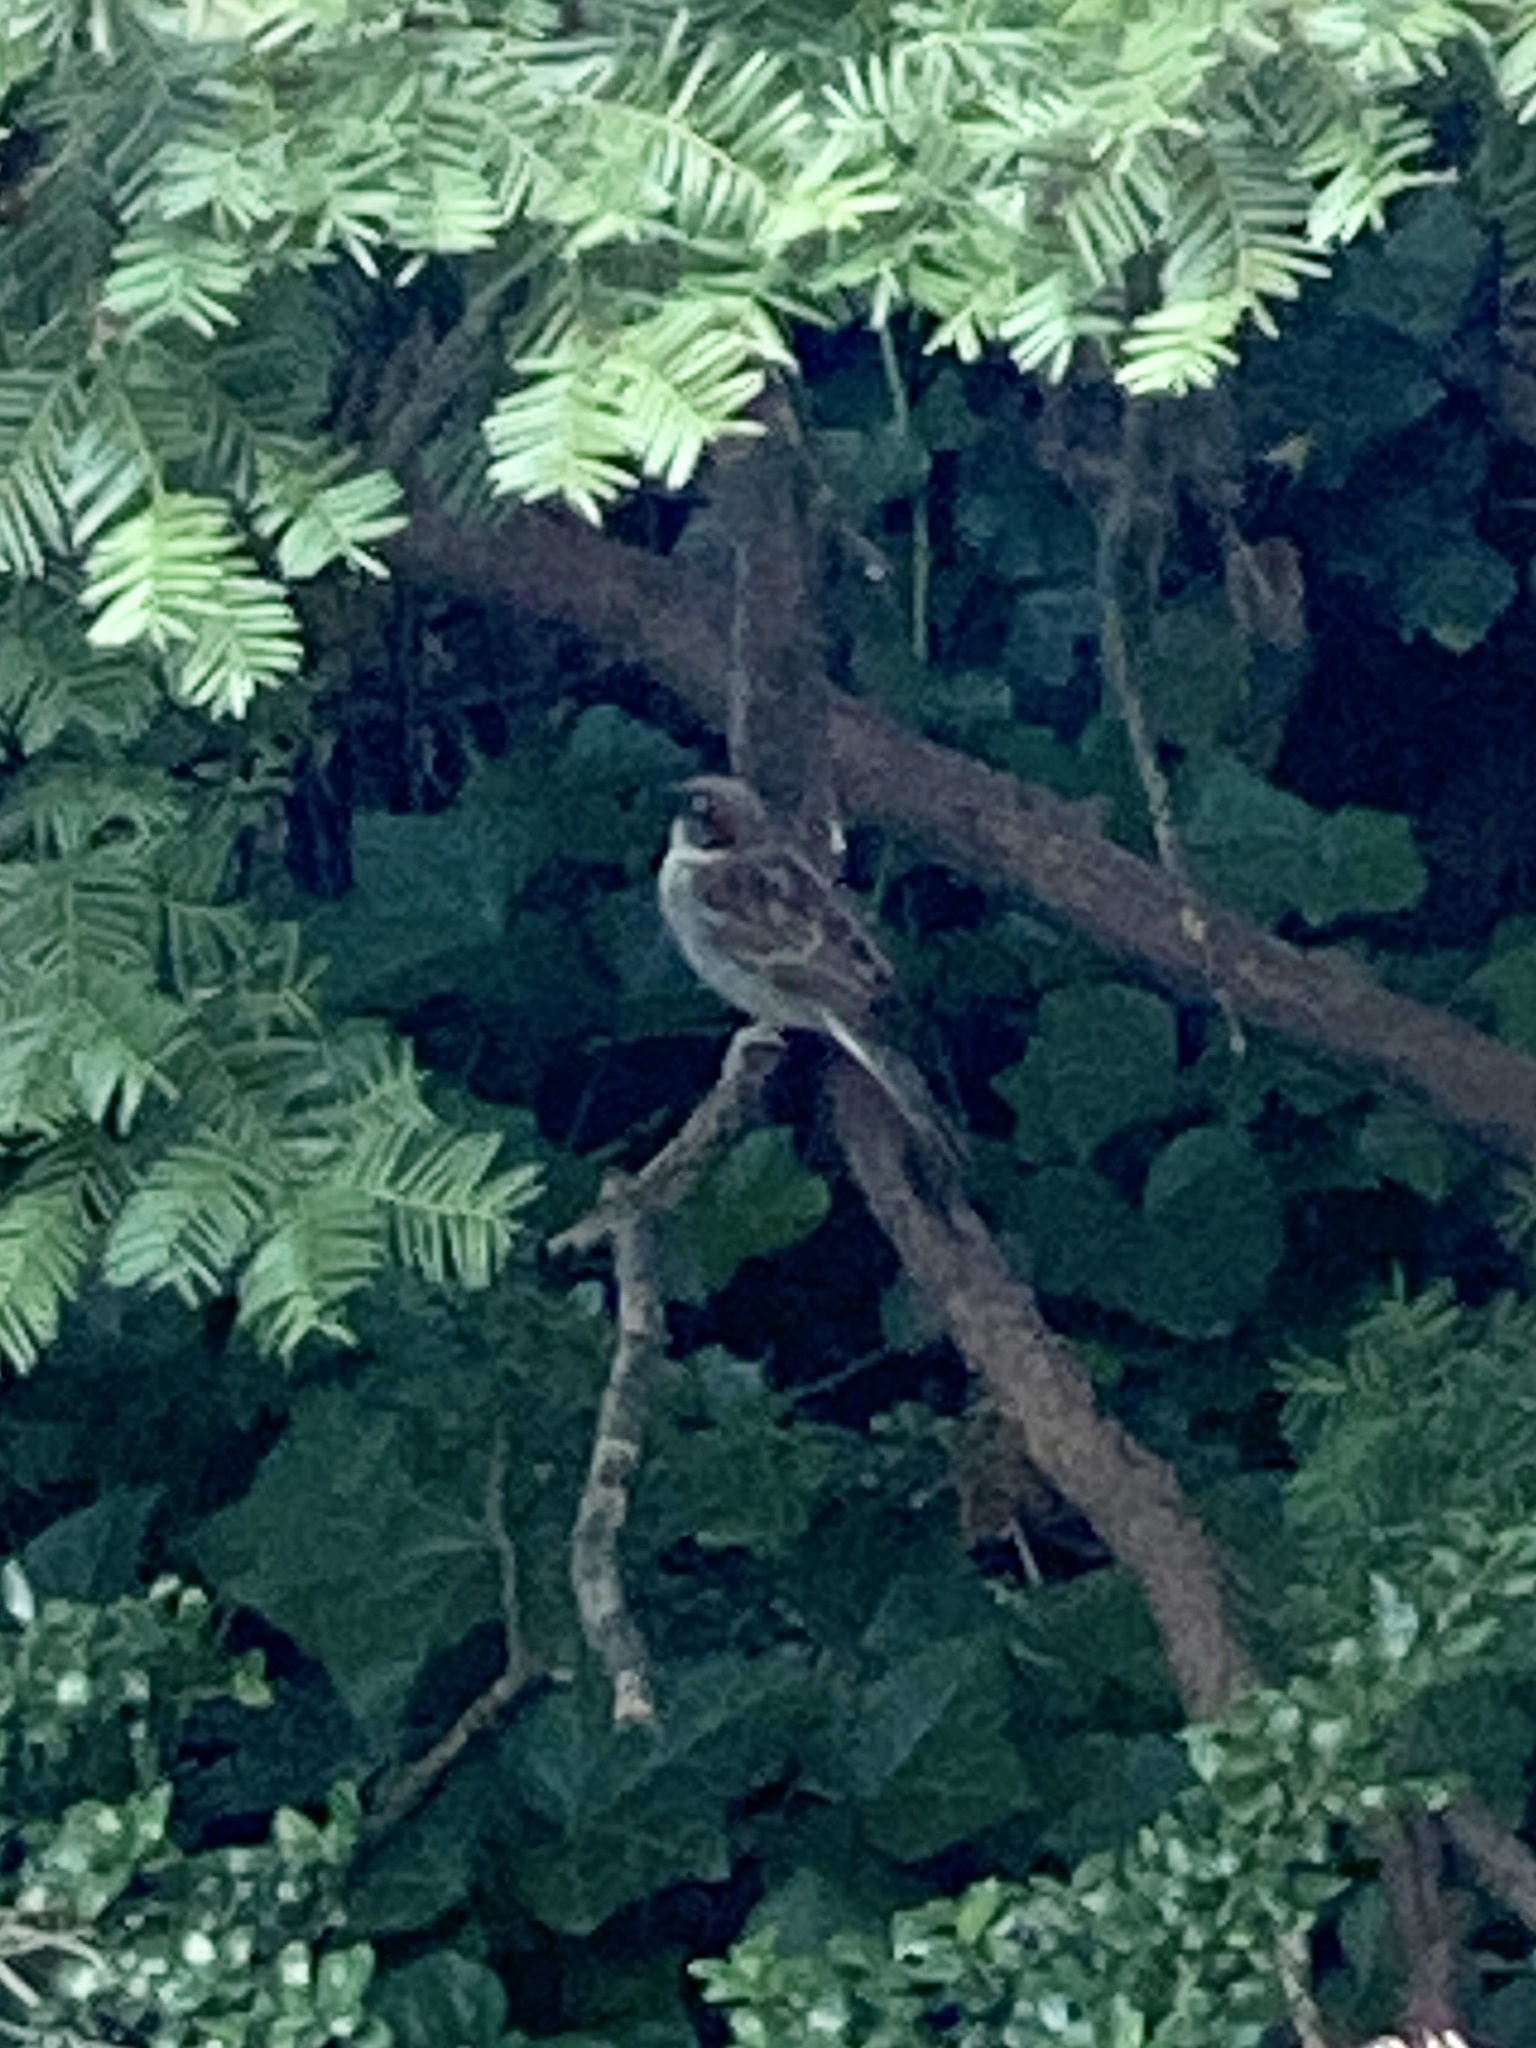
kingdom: Animalia
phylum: Chordata
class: Aves
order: Passeriformes
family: Passeridae
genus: Passer
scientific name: Passer domesticus
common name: House sparrow
